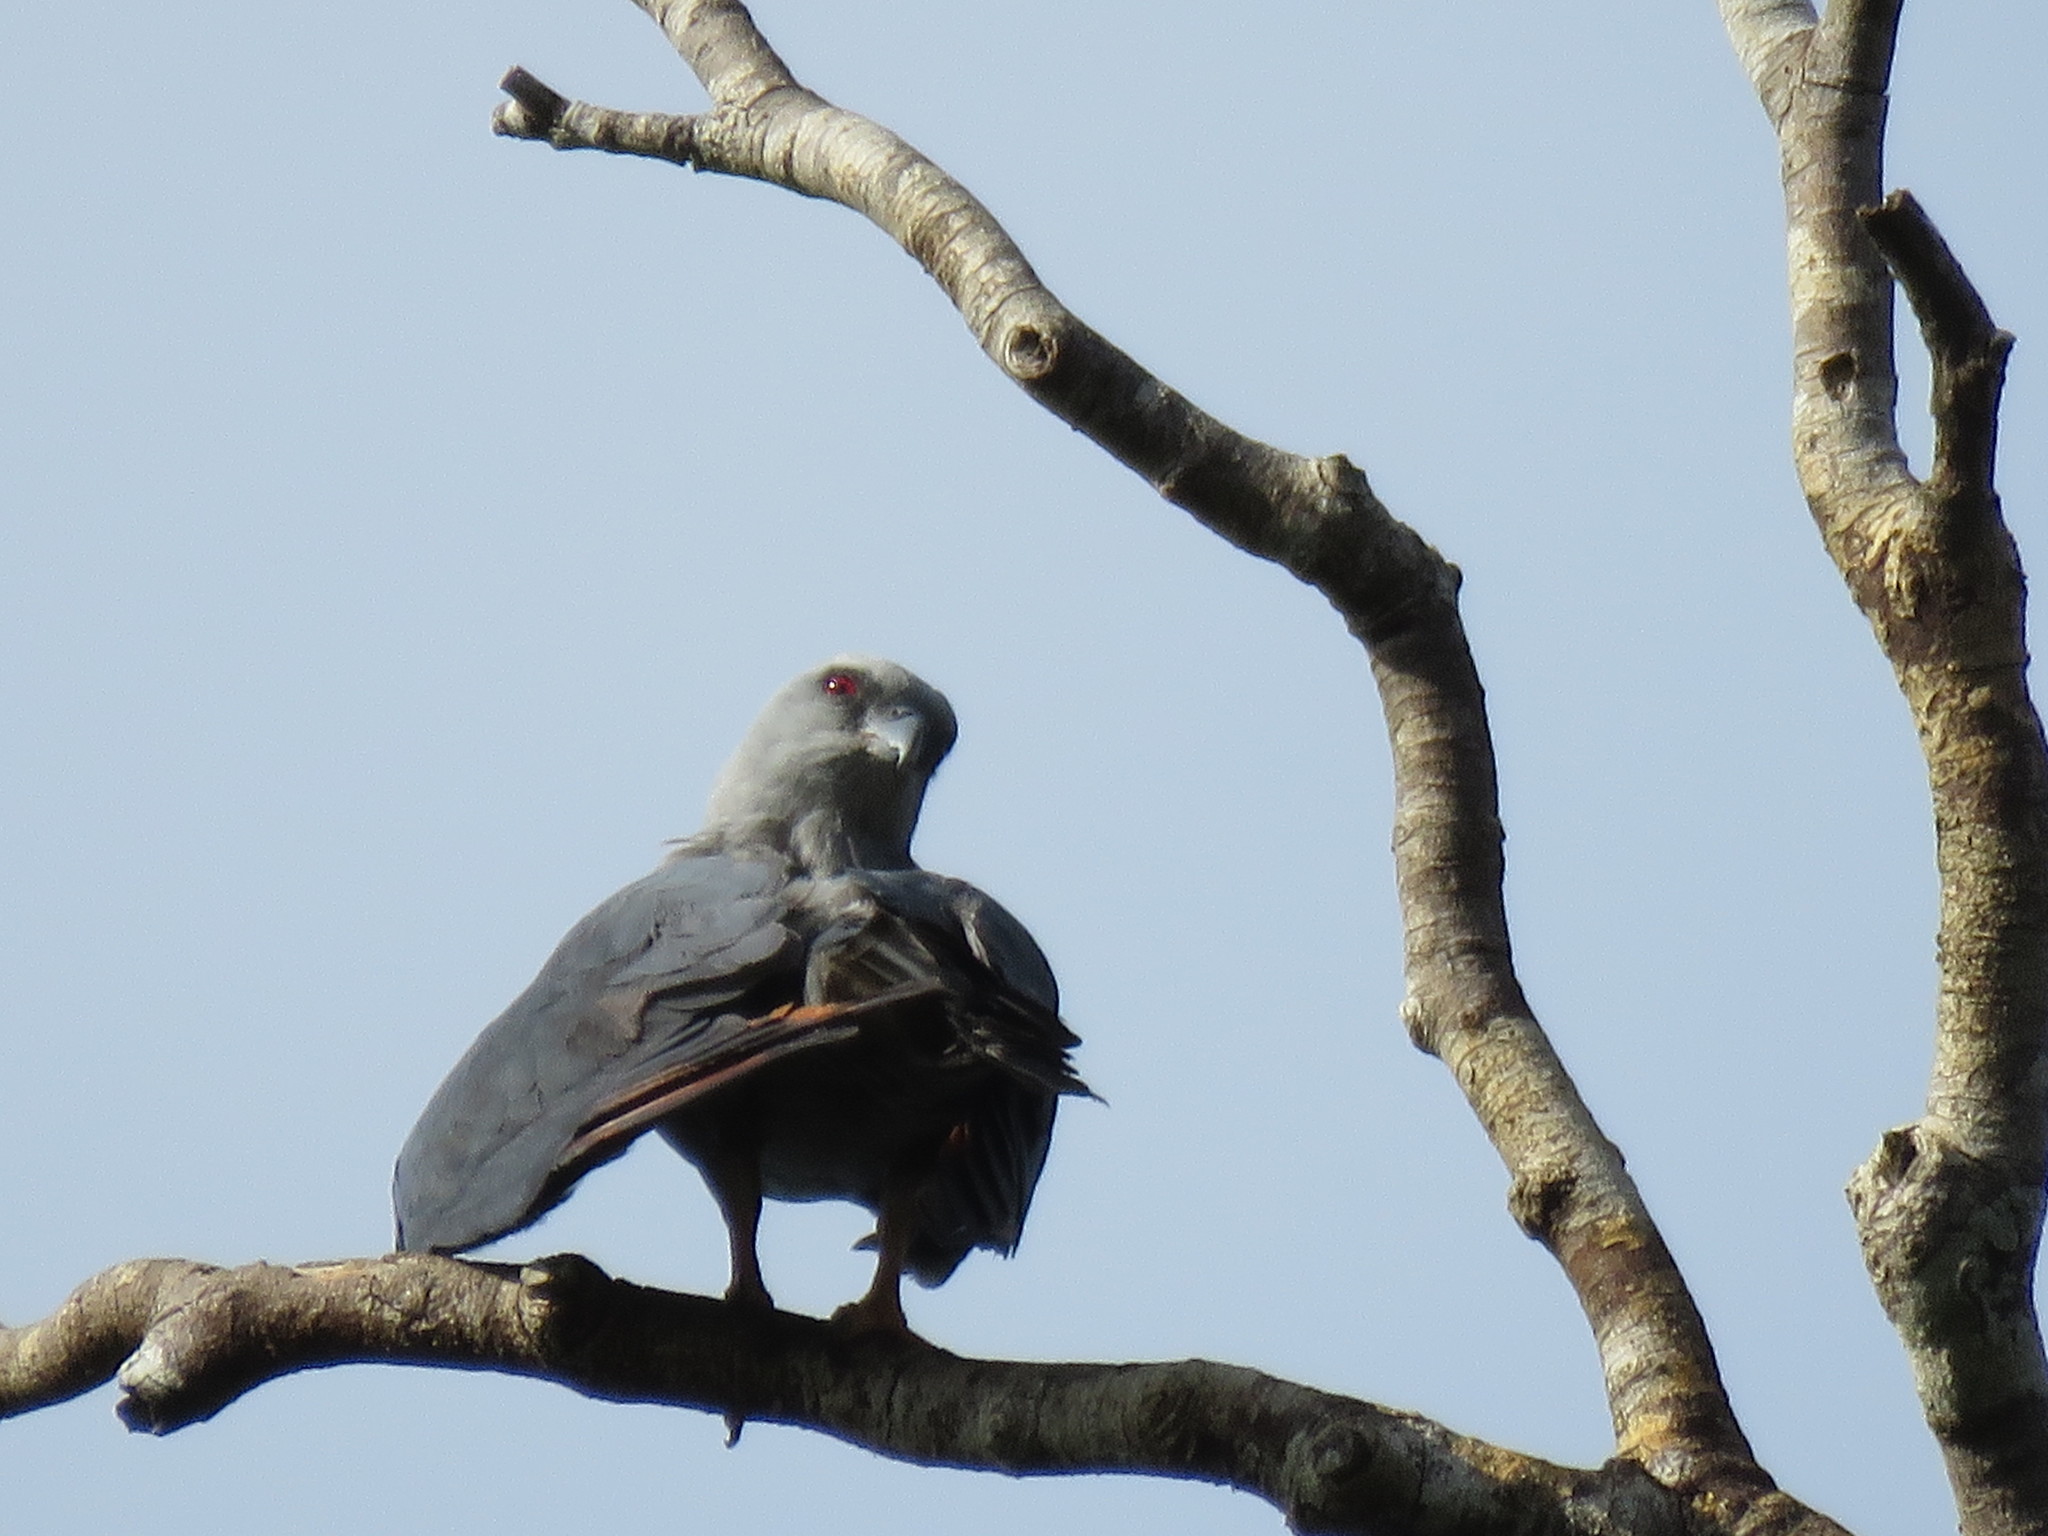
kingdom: Animalia
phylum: Chordata
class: Aves
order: Accipitriformes
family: Accipitridae
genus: Ictinia
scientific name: Ictinia plumbea
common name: Plumbeous kite
